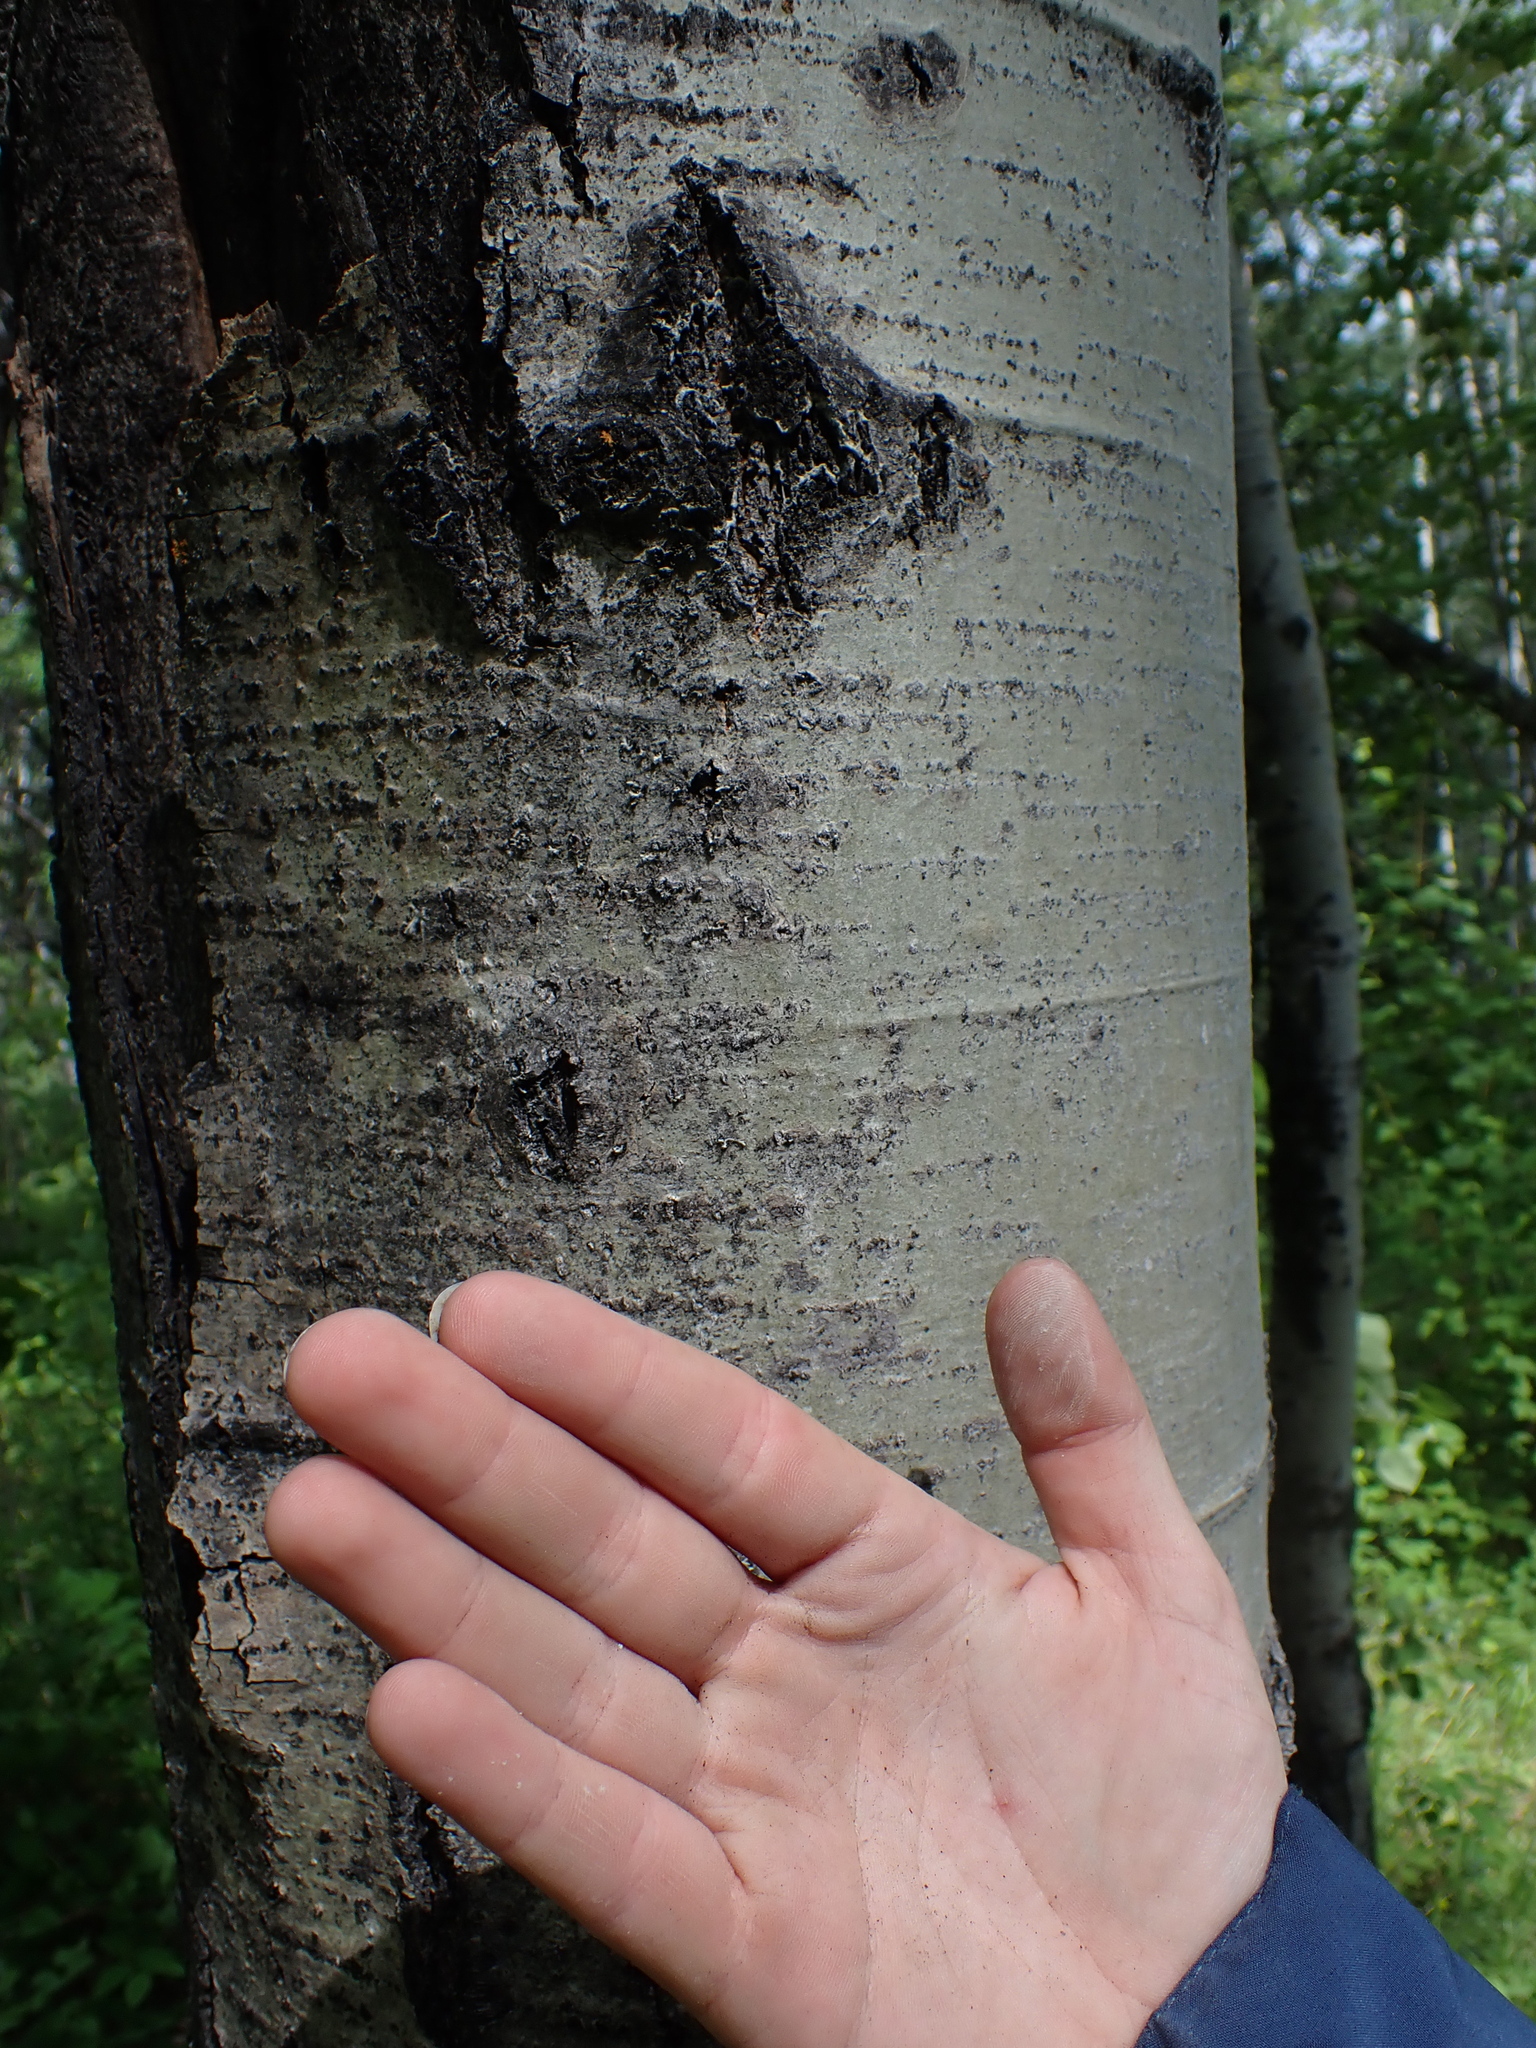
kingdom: Plantae
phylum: Tracheophyta
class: Magnoliopsida
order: Malpighiales
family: Salicaceae
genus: Populus
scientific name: Populus tremuloides
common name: Quaking aspen
